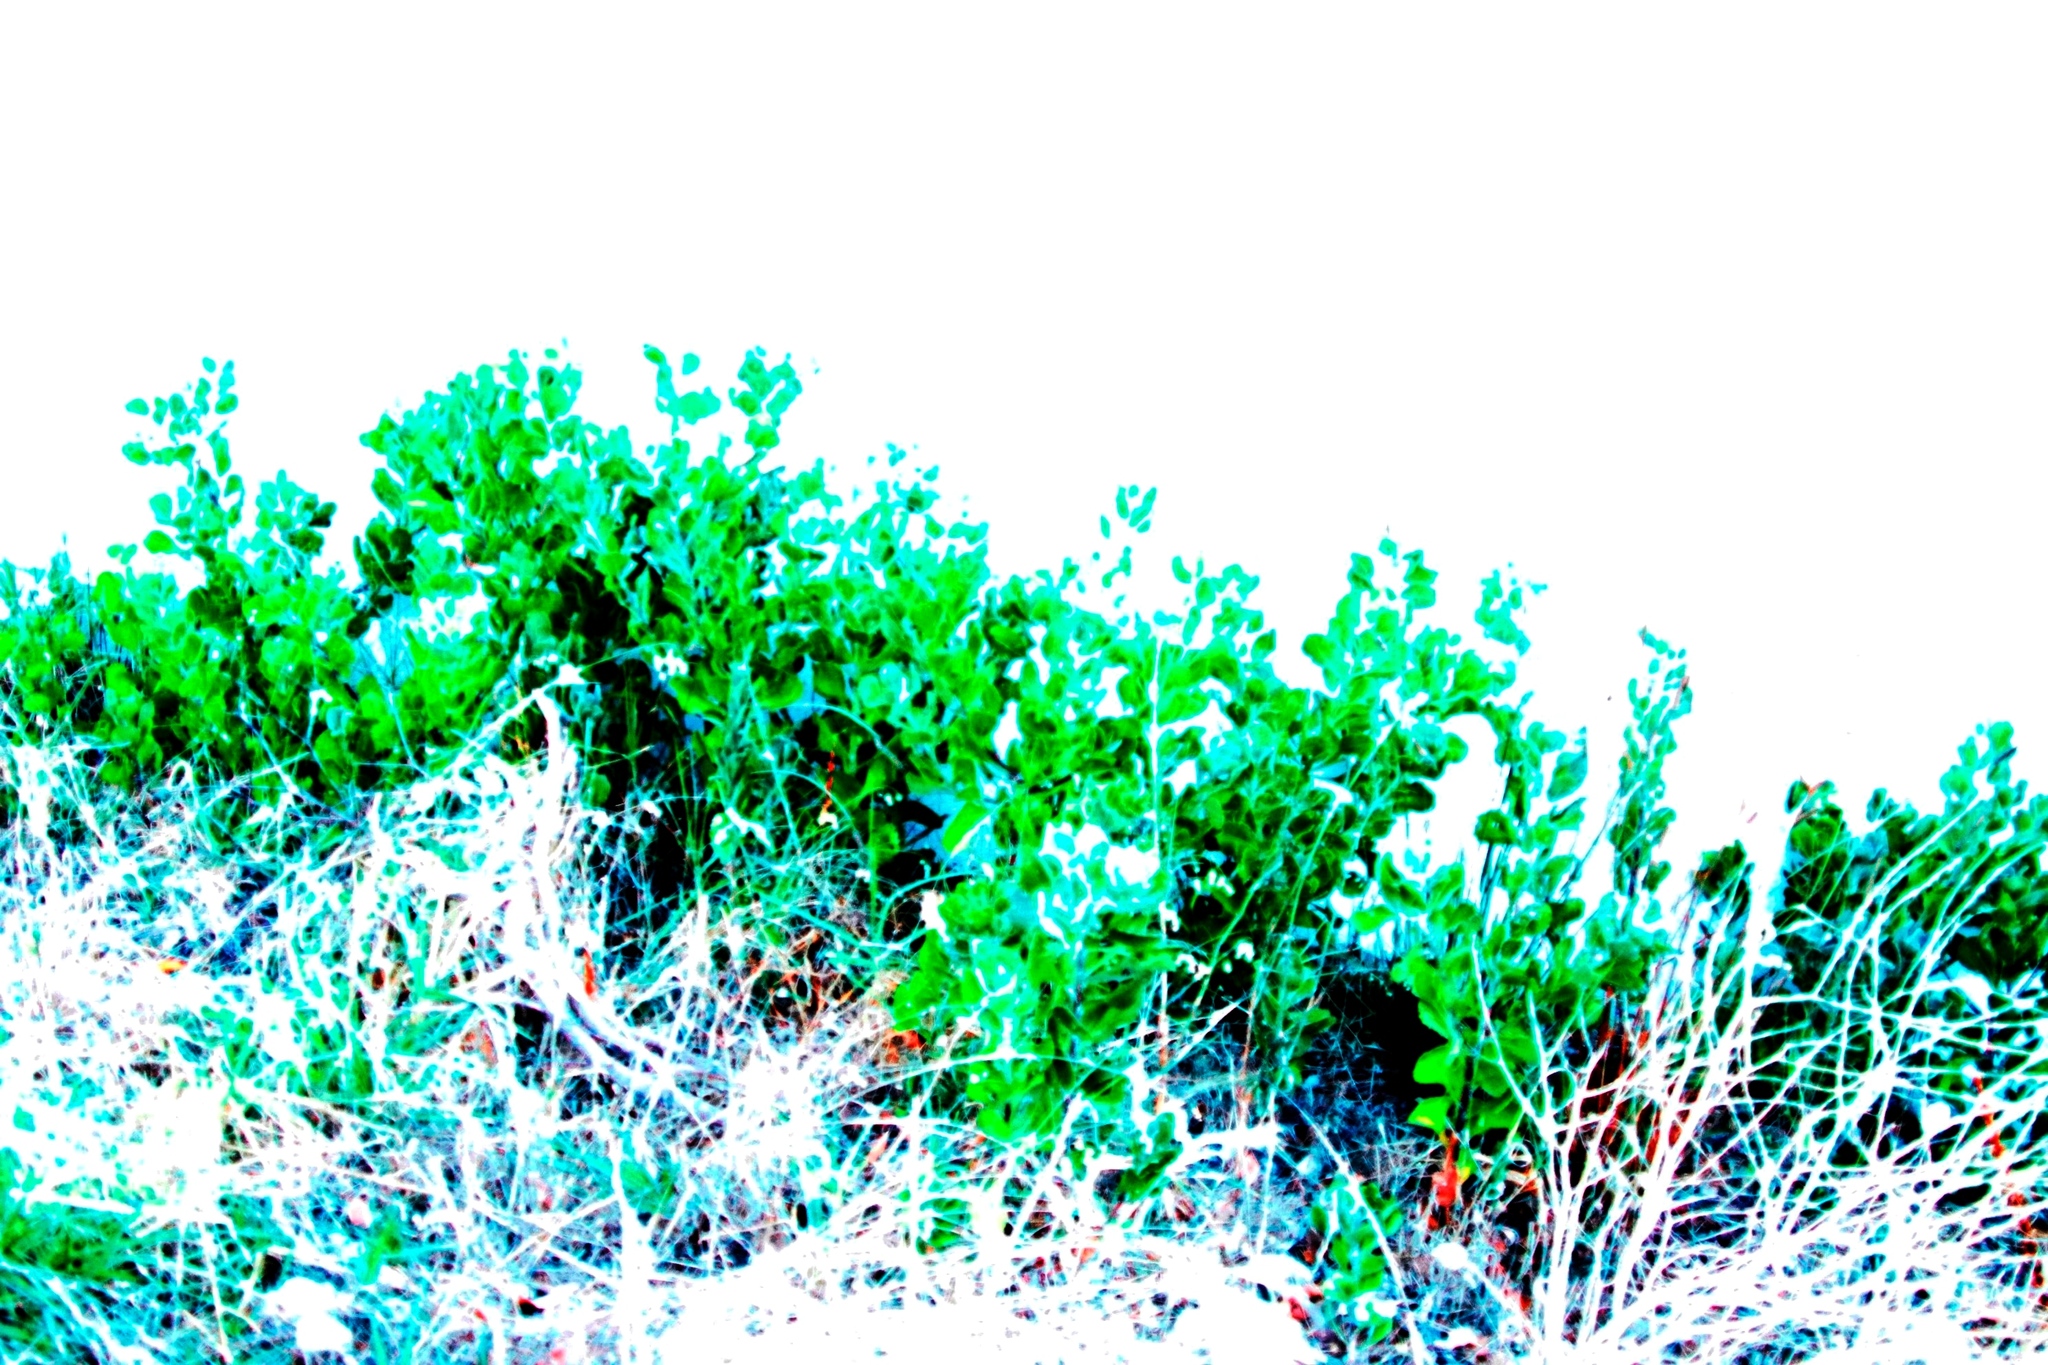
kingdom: Plantae
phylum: Tracheophyta
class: Magnoliopsida
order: Asterales
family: Asteraceae
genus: Osteospermum
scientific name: Osteospermum moniliferum
